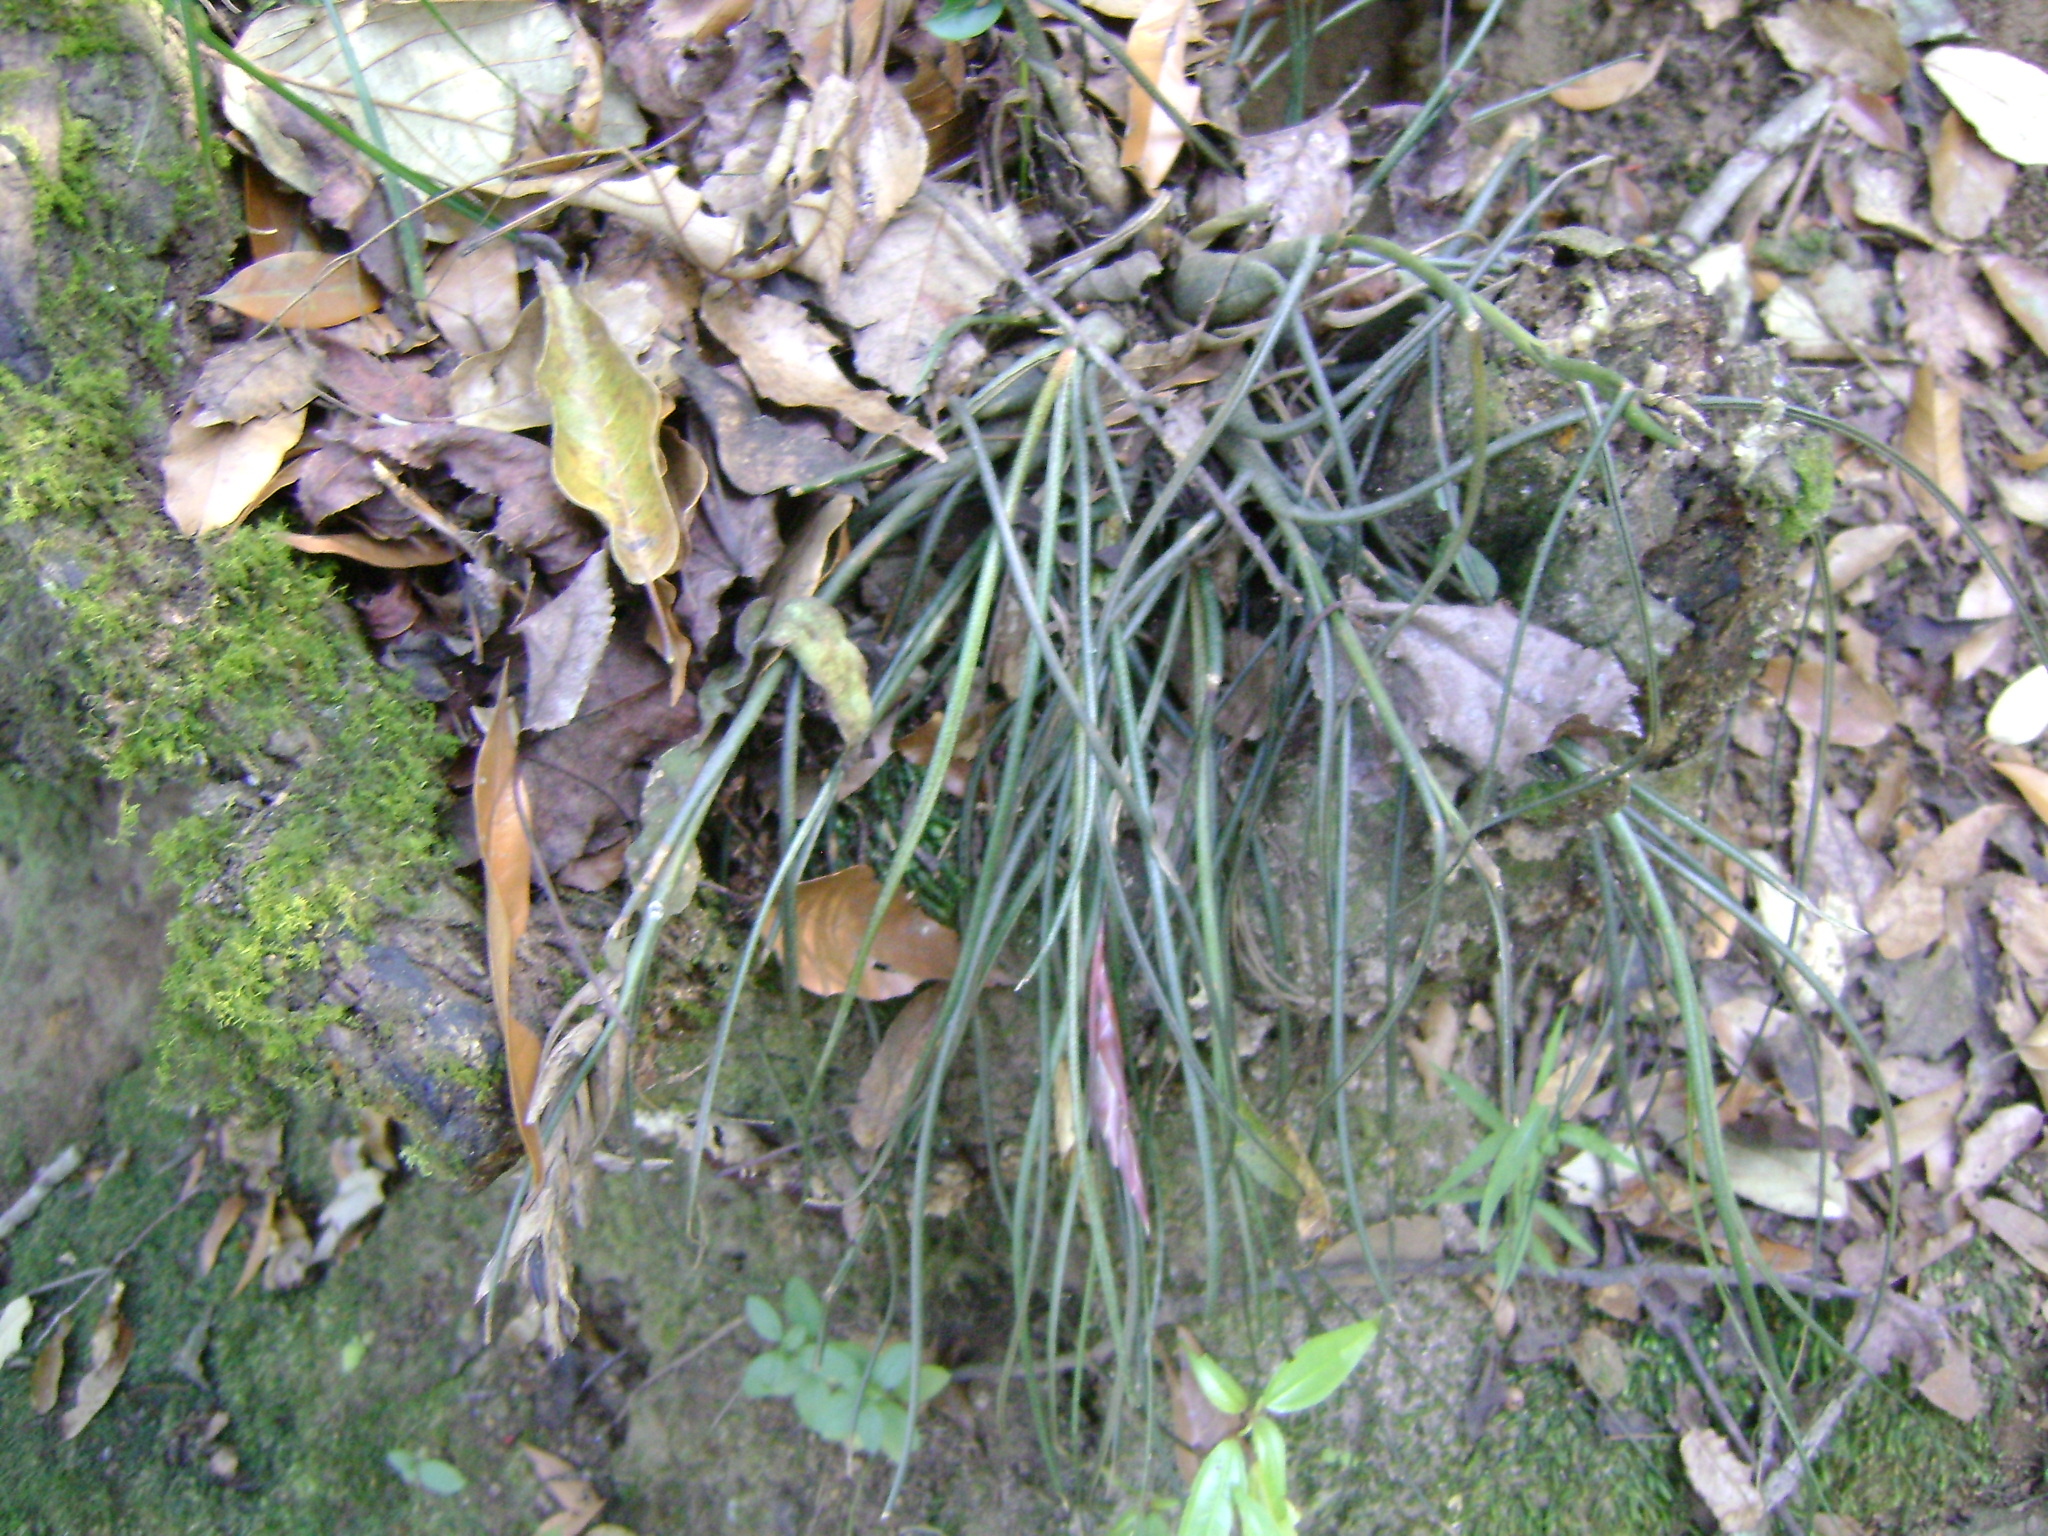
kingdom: Plantae
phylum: Tracheophyta
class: Liliopsida
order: Poales
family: Bromeliaceae
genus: Tillandsia
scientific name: Tillandsia butzii
